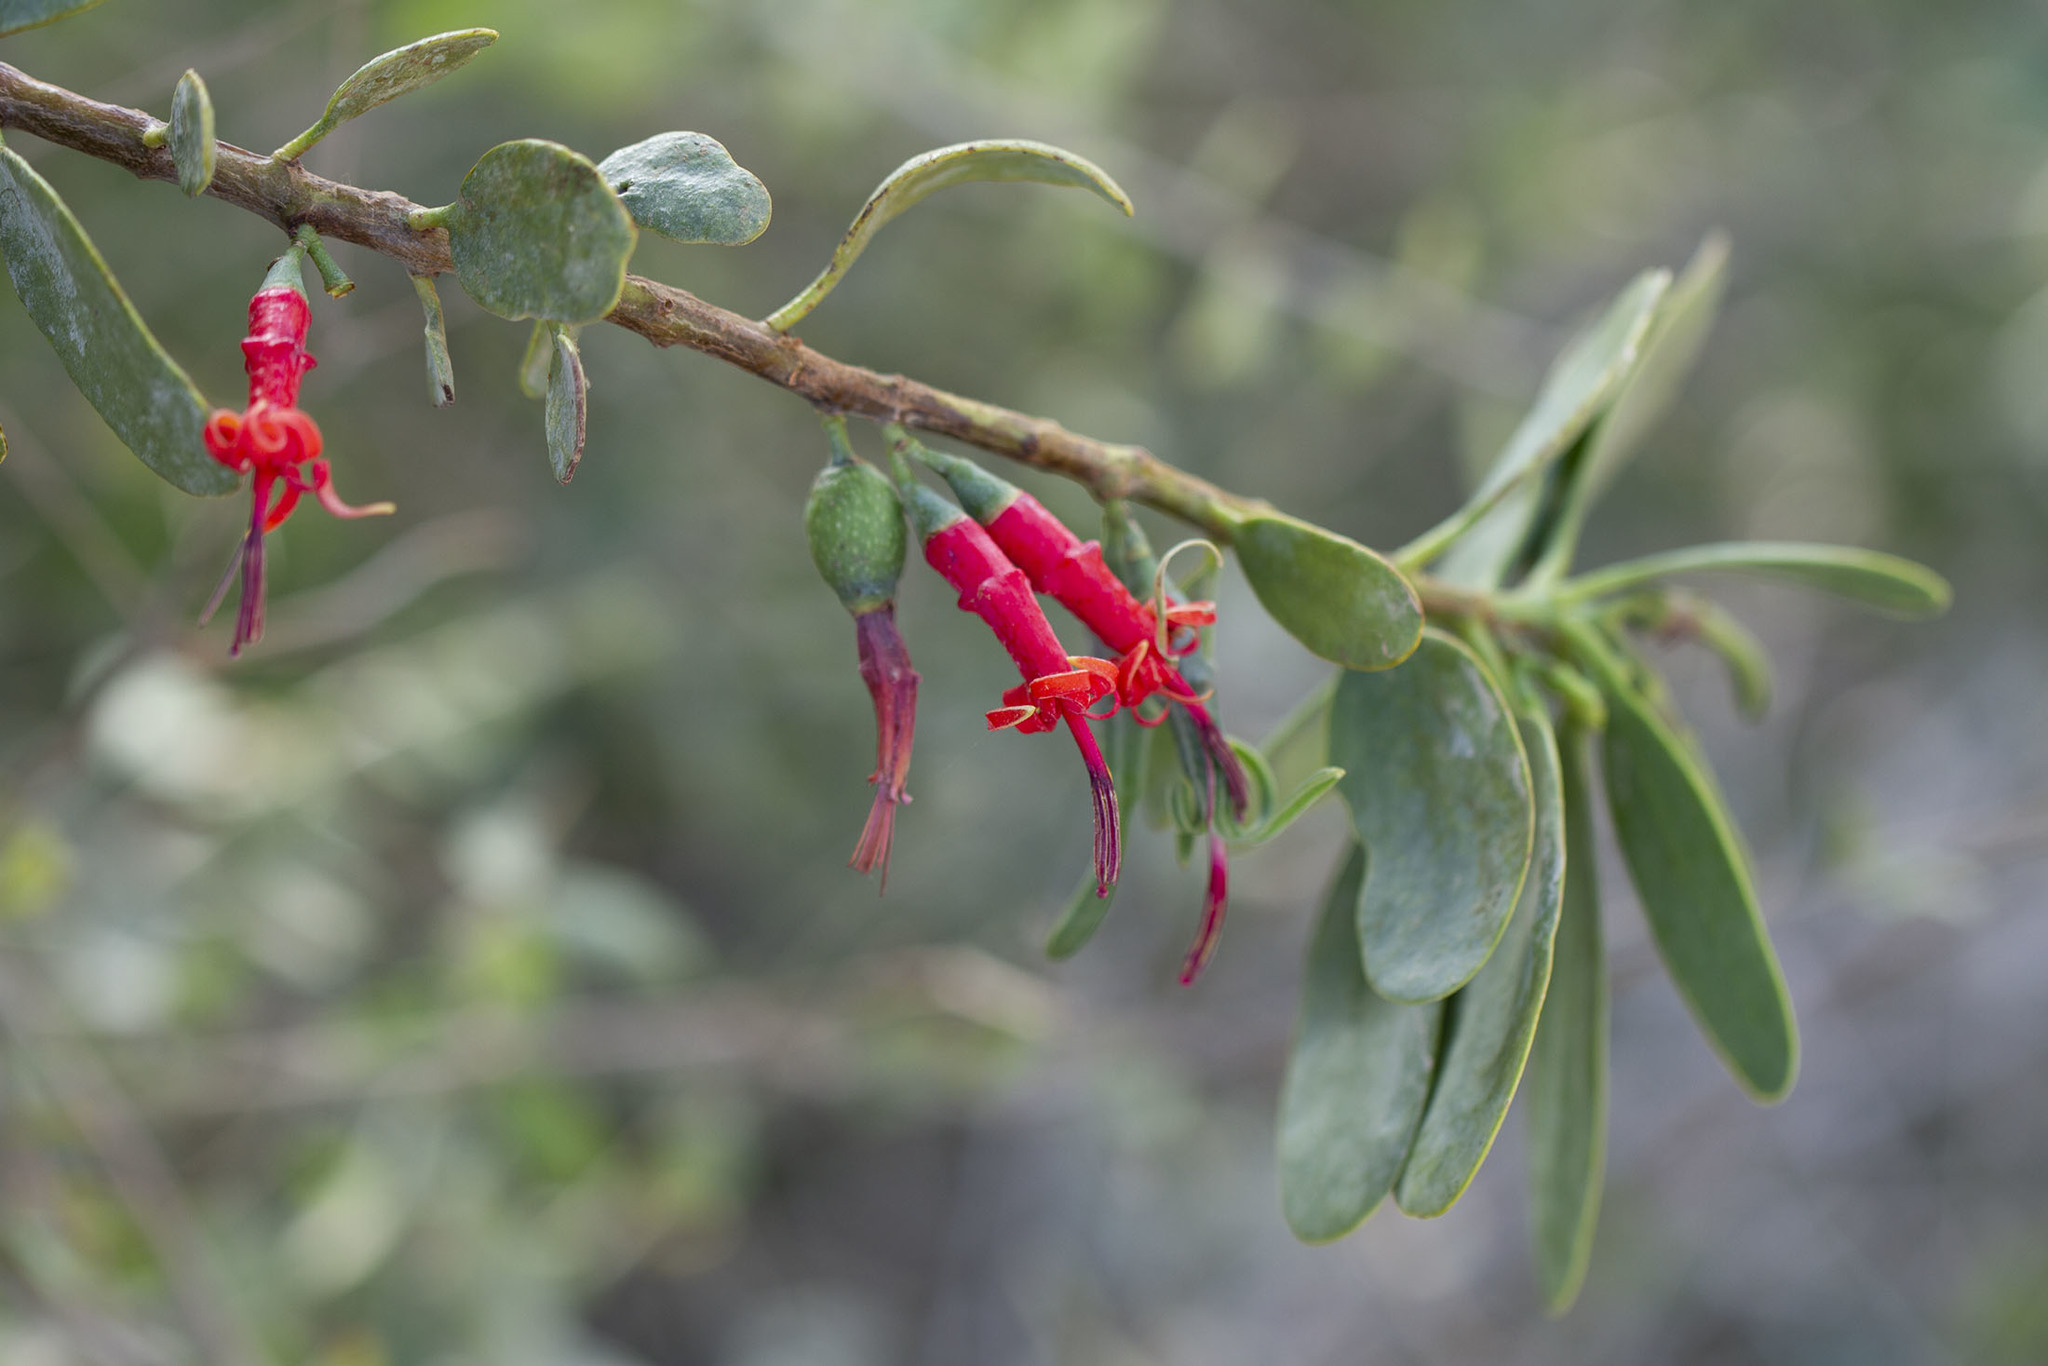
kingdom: Plantae
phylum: Tracheophyta
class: Magnoliopsida
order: Santalales
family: Loranthaceae
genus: Plicosepalus
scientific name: Plicosepalus acaciae
